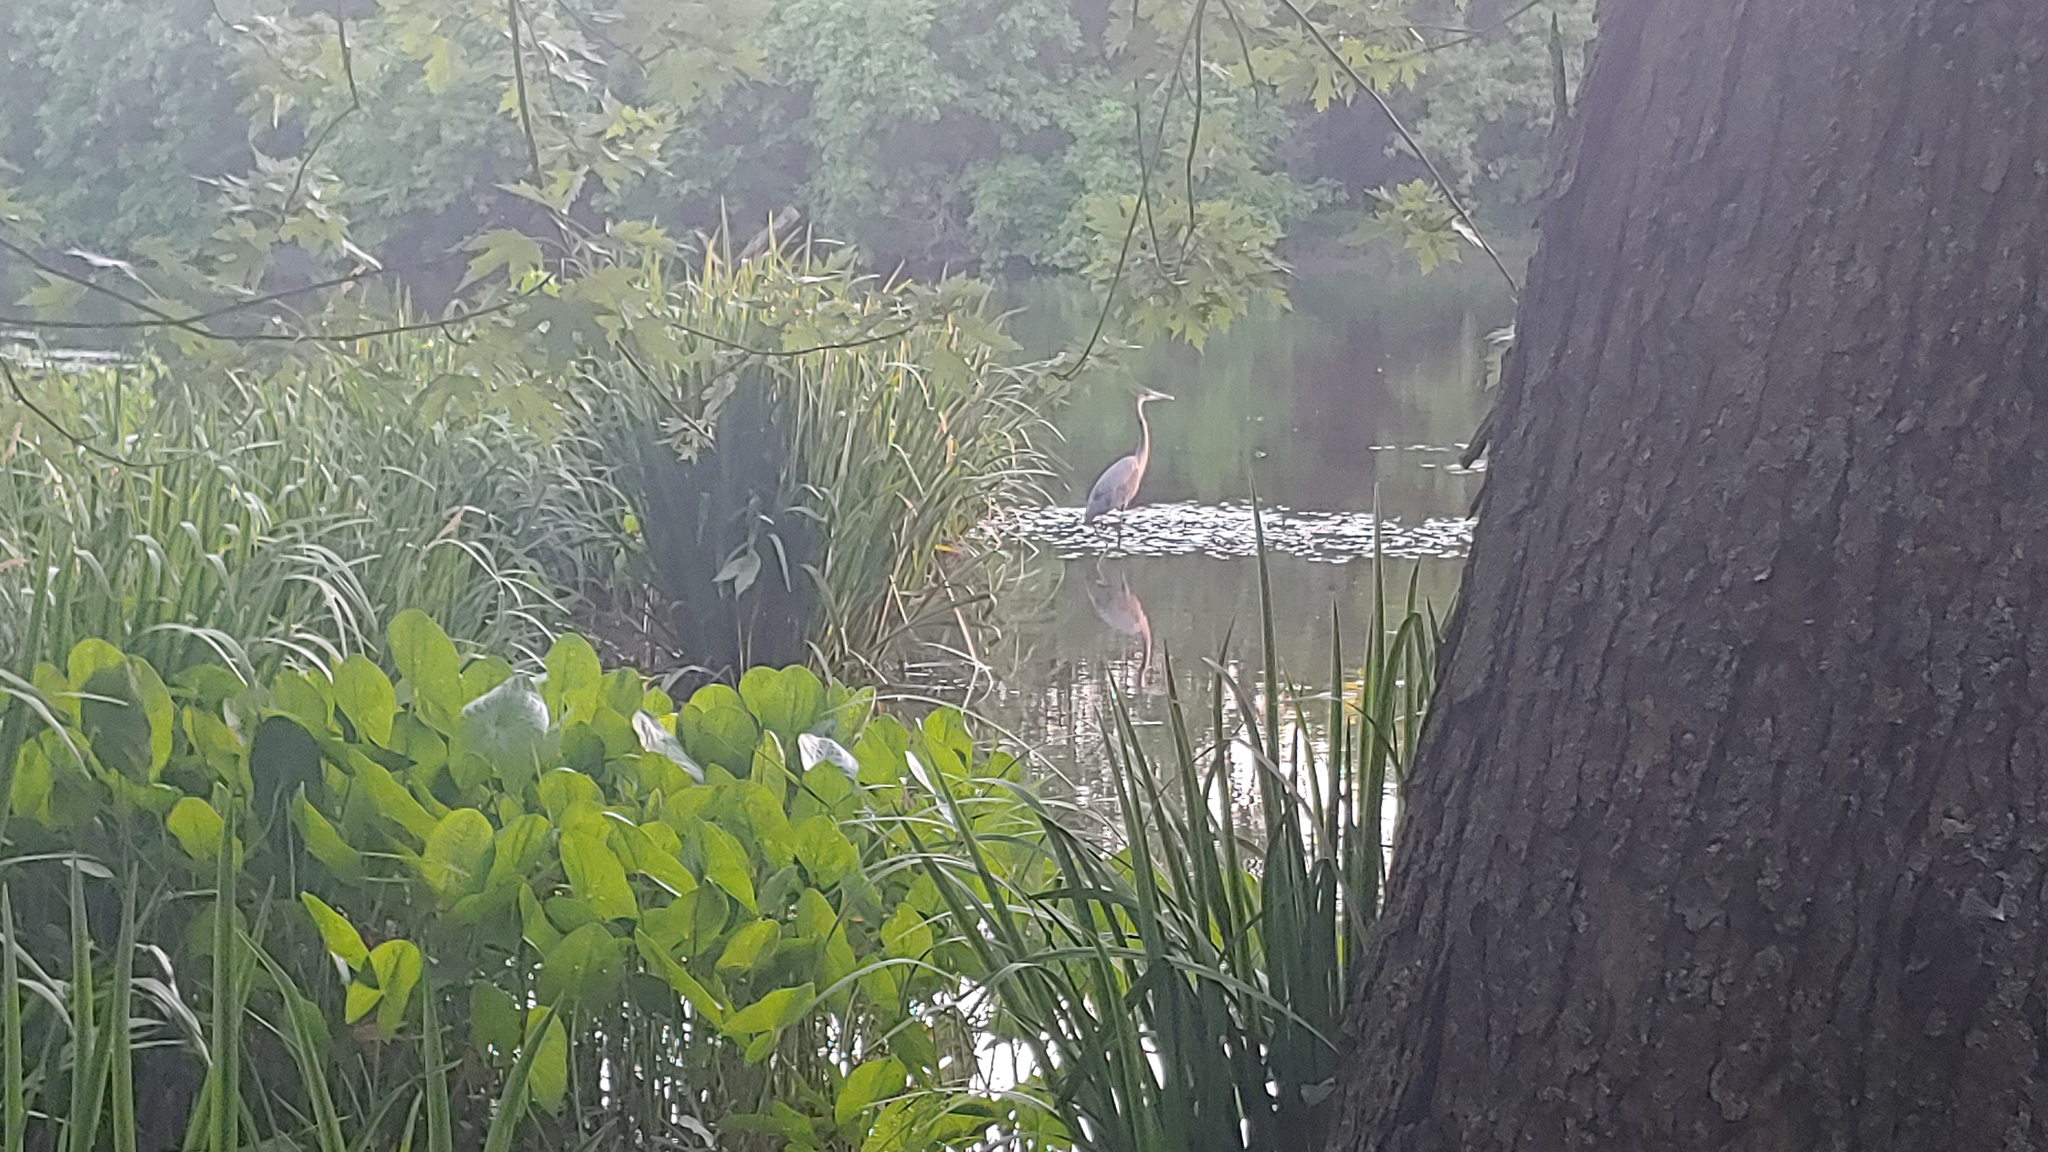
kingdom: Animalia
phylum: Chordata
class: Aves
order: Pelecaniformes
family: Ardeidae
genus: Ardea
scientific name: Ardea herodias
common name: Great blue heron
